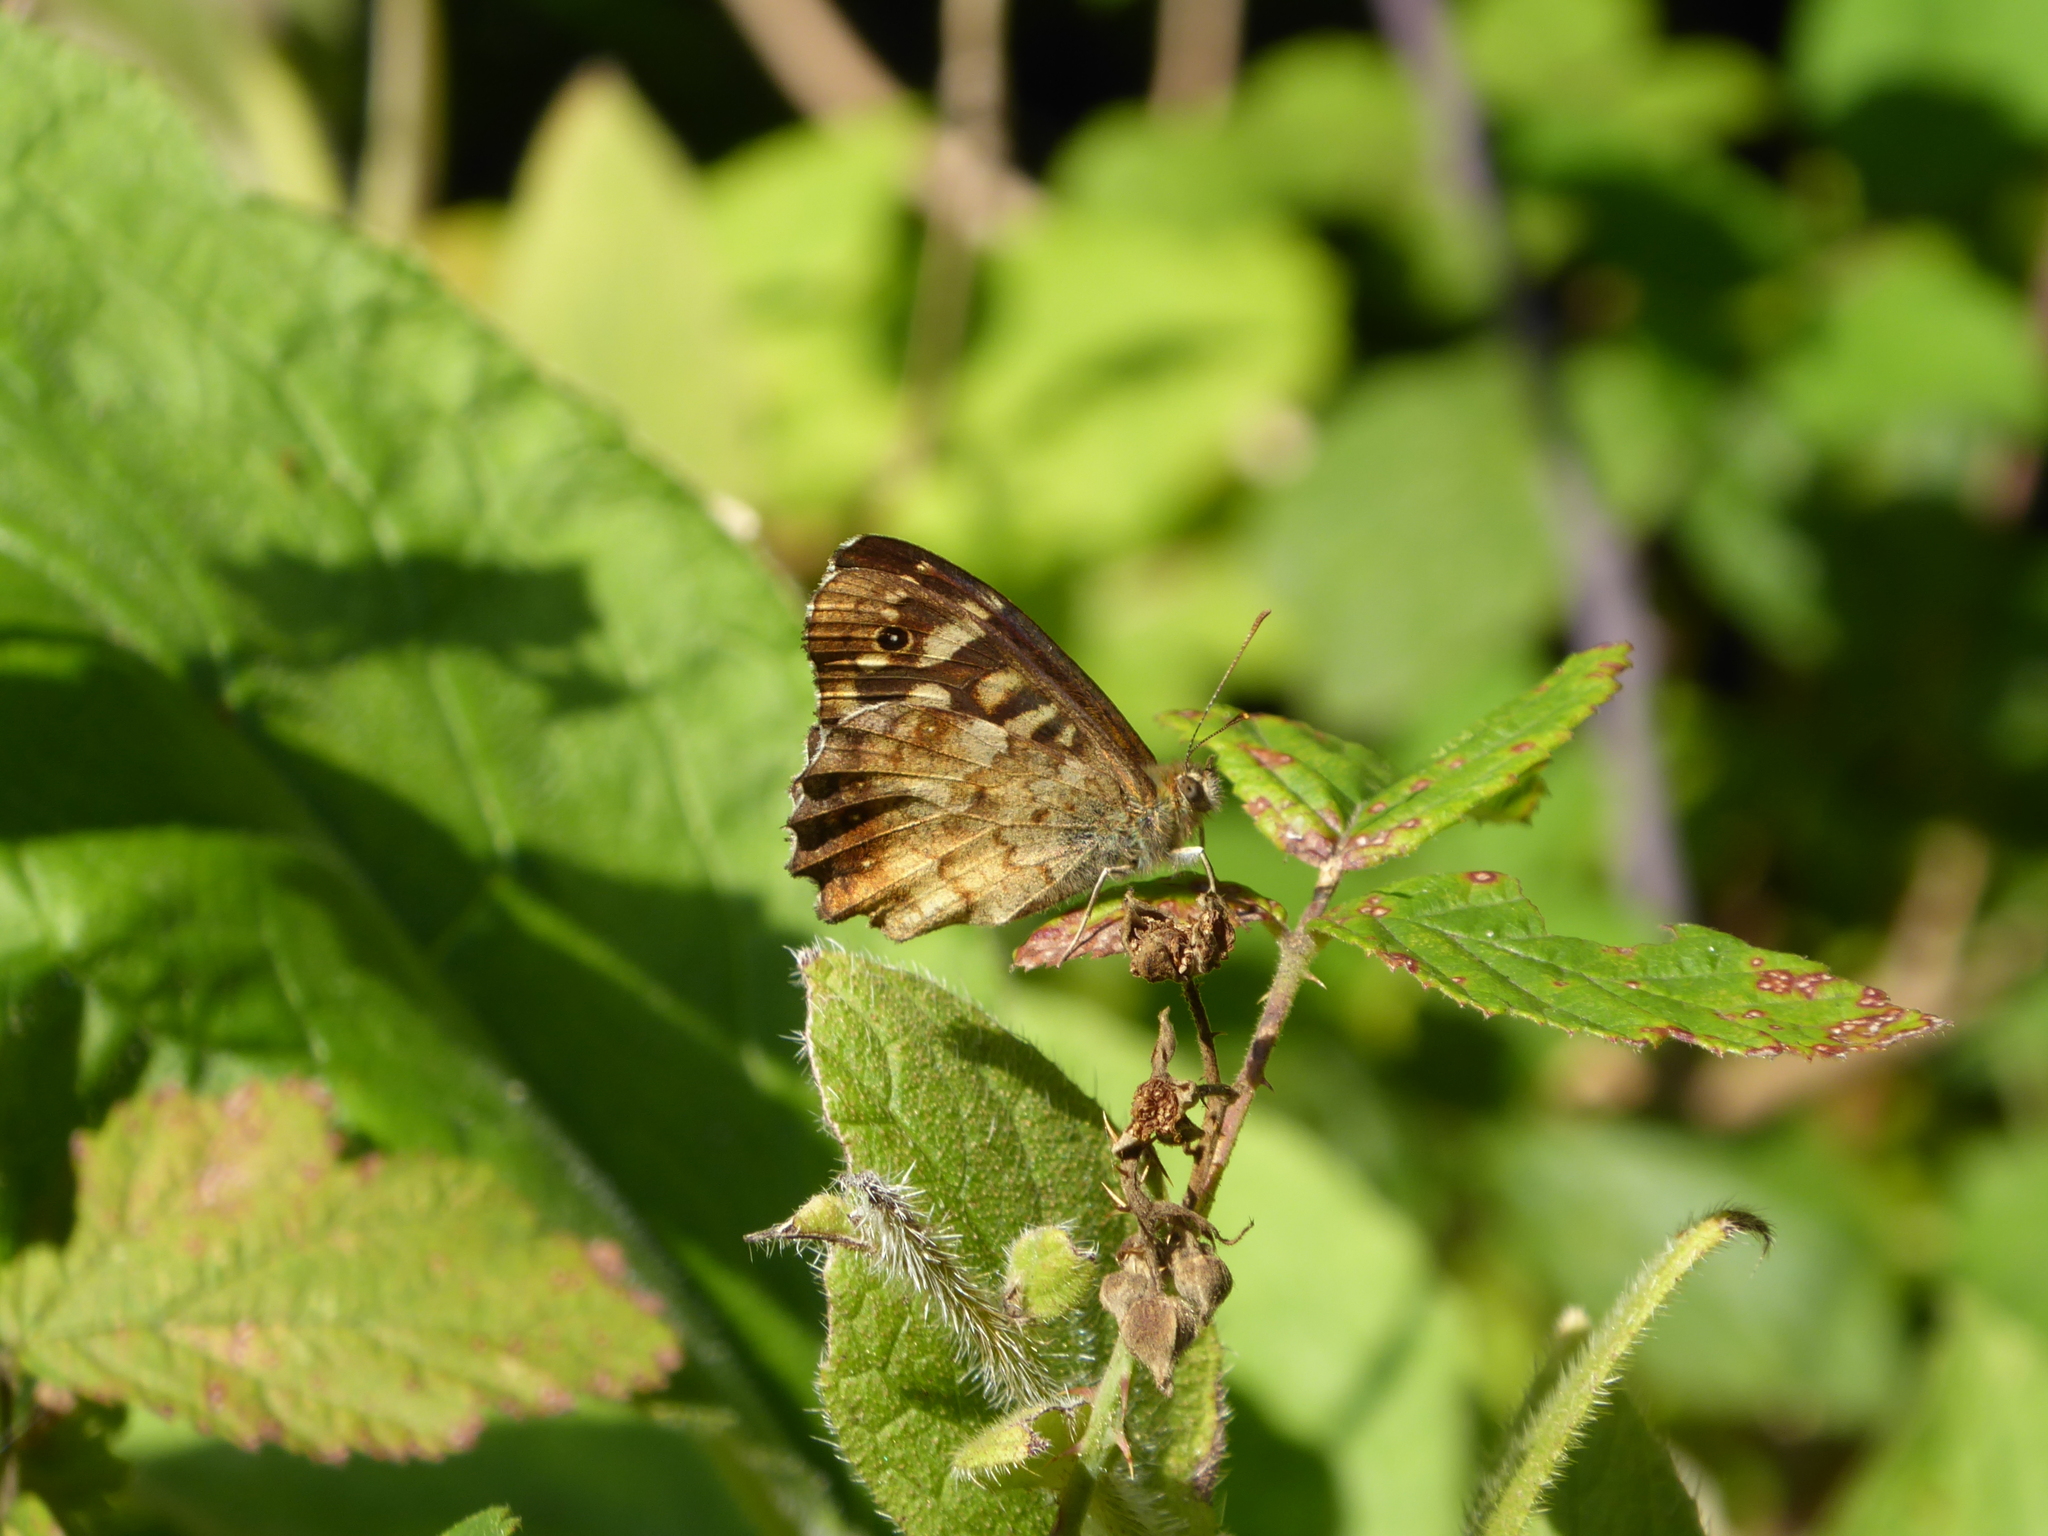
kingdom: Animalia
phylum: Arthropoda
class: Insecta
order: Lepidoptera
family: Nymphalidae
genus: Pararge
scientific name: Pararge aegeria
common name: Speckled wood
